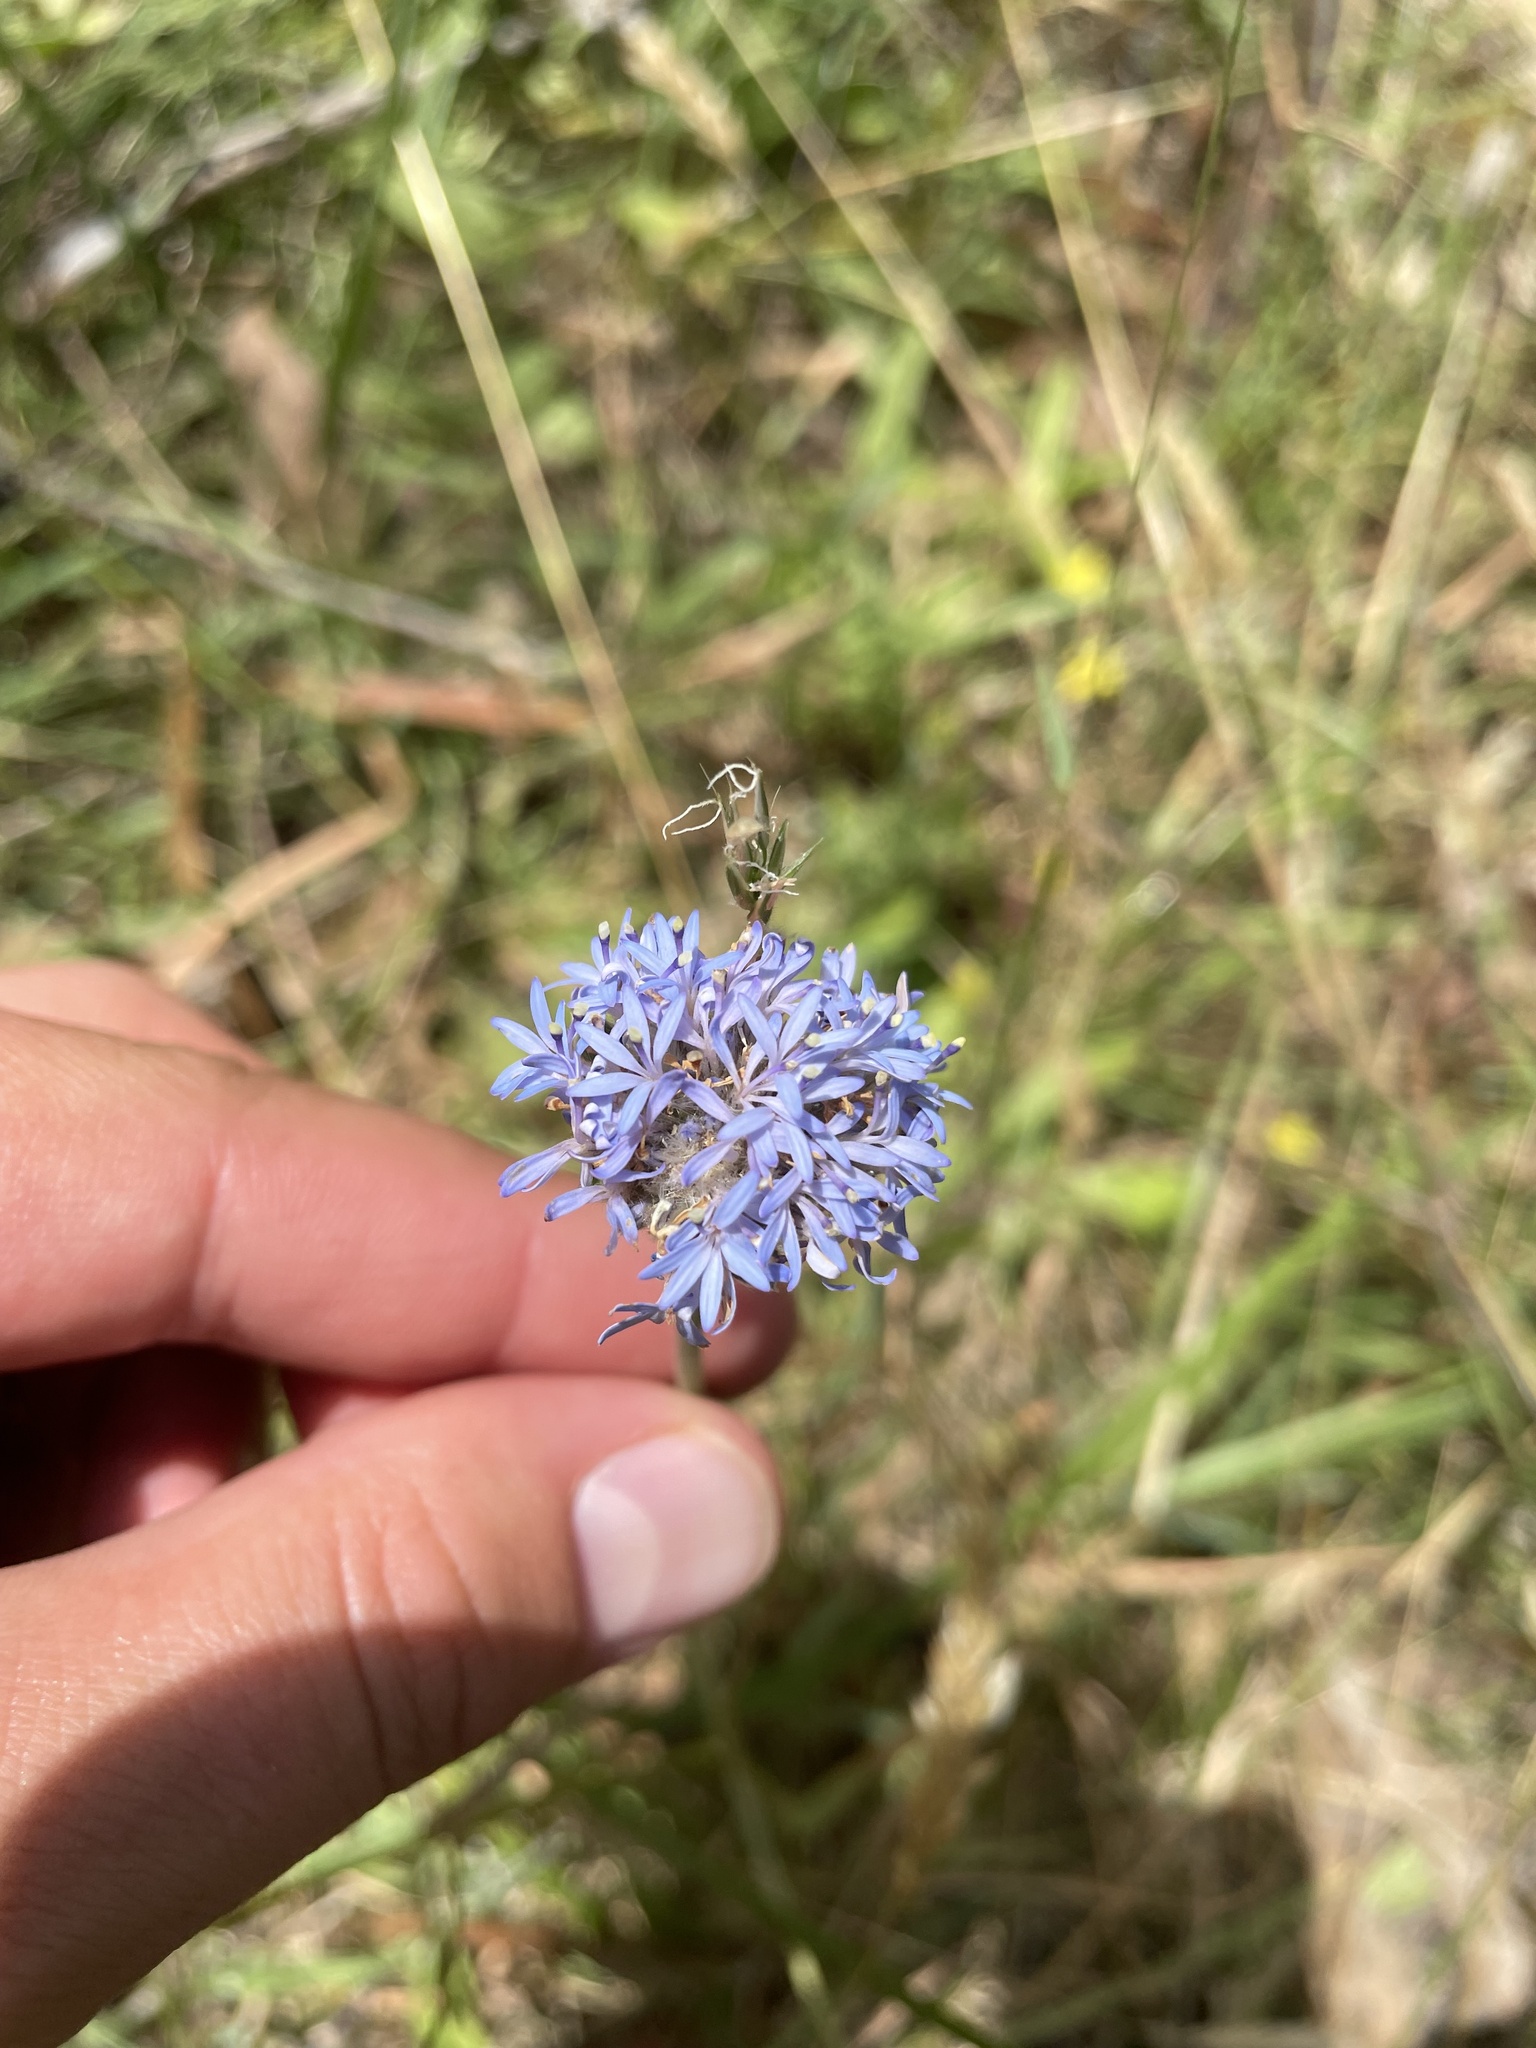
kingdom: Plantae
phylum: Tracheophyta
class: Magnoliopsida
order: Asterales
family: Goodeniaceae
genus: Brunonia
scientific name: Brunonia australis
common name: Blue pincushion
